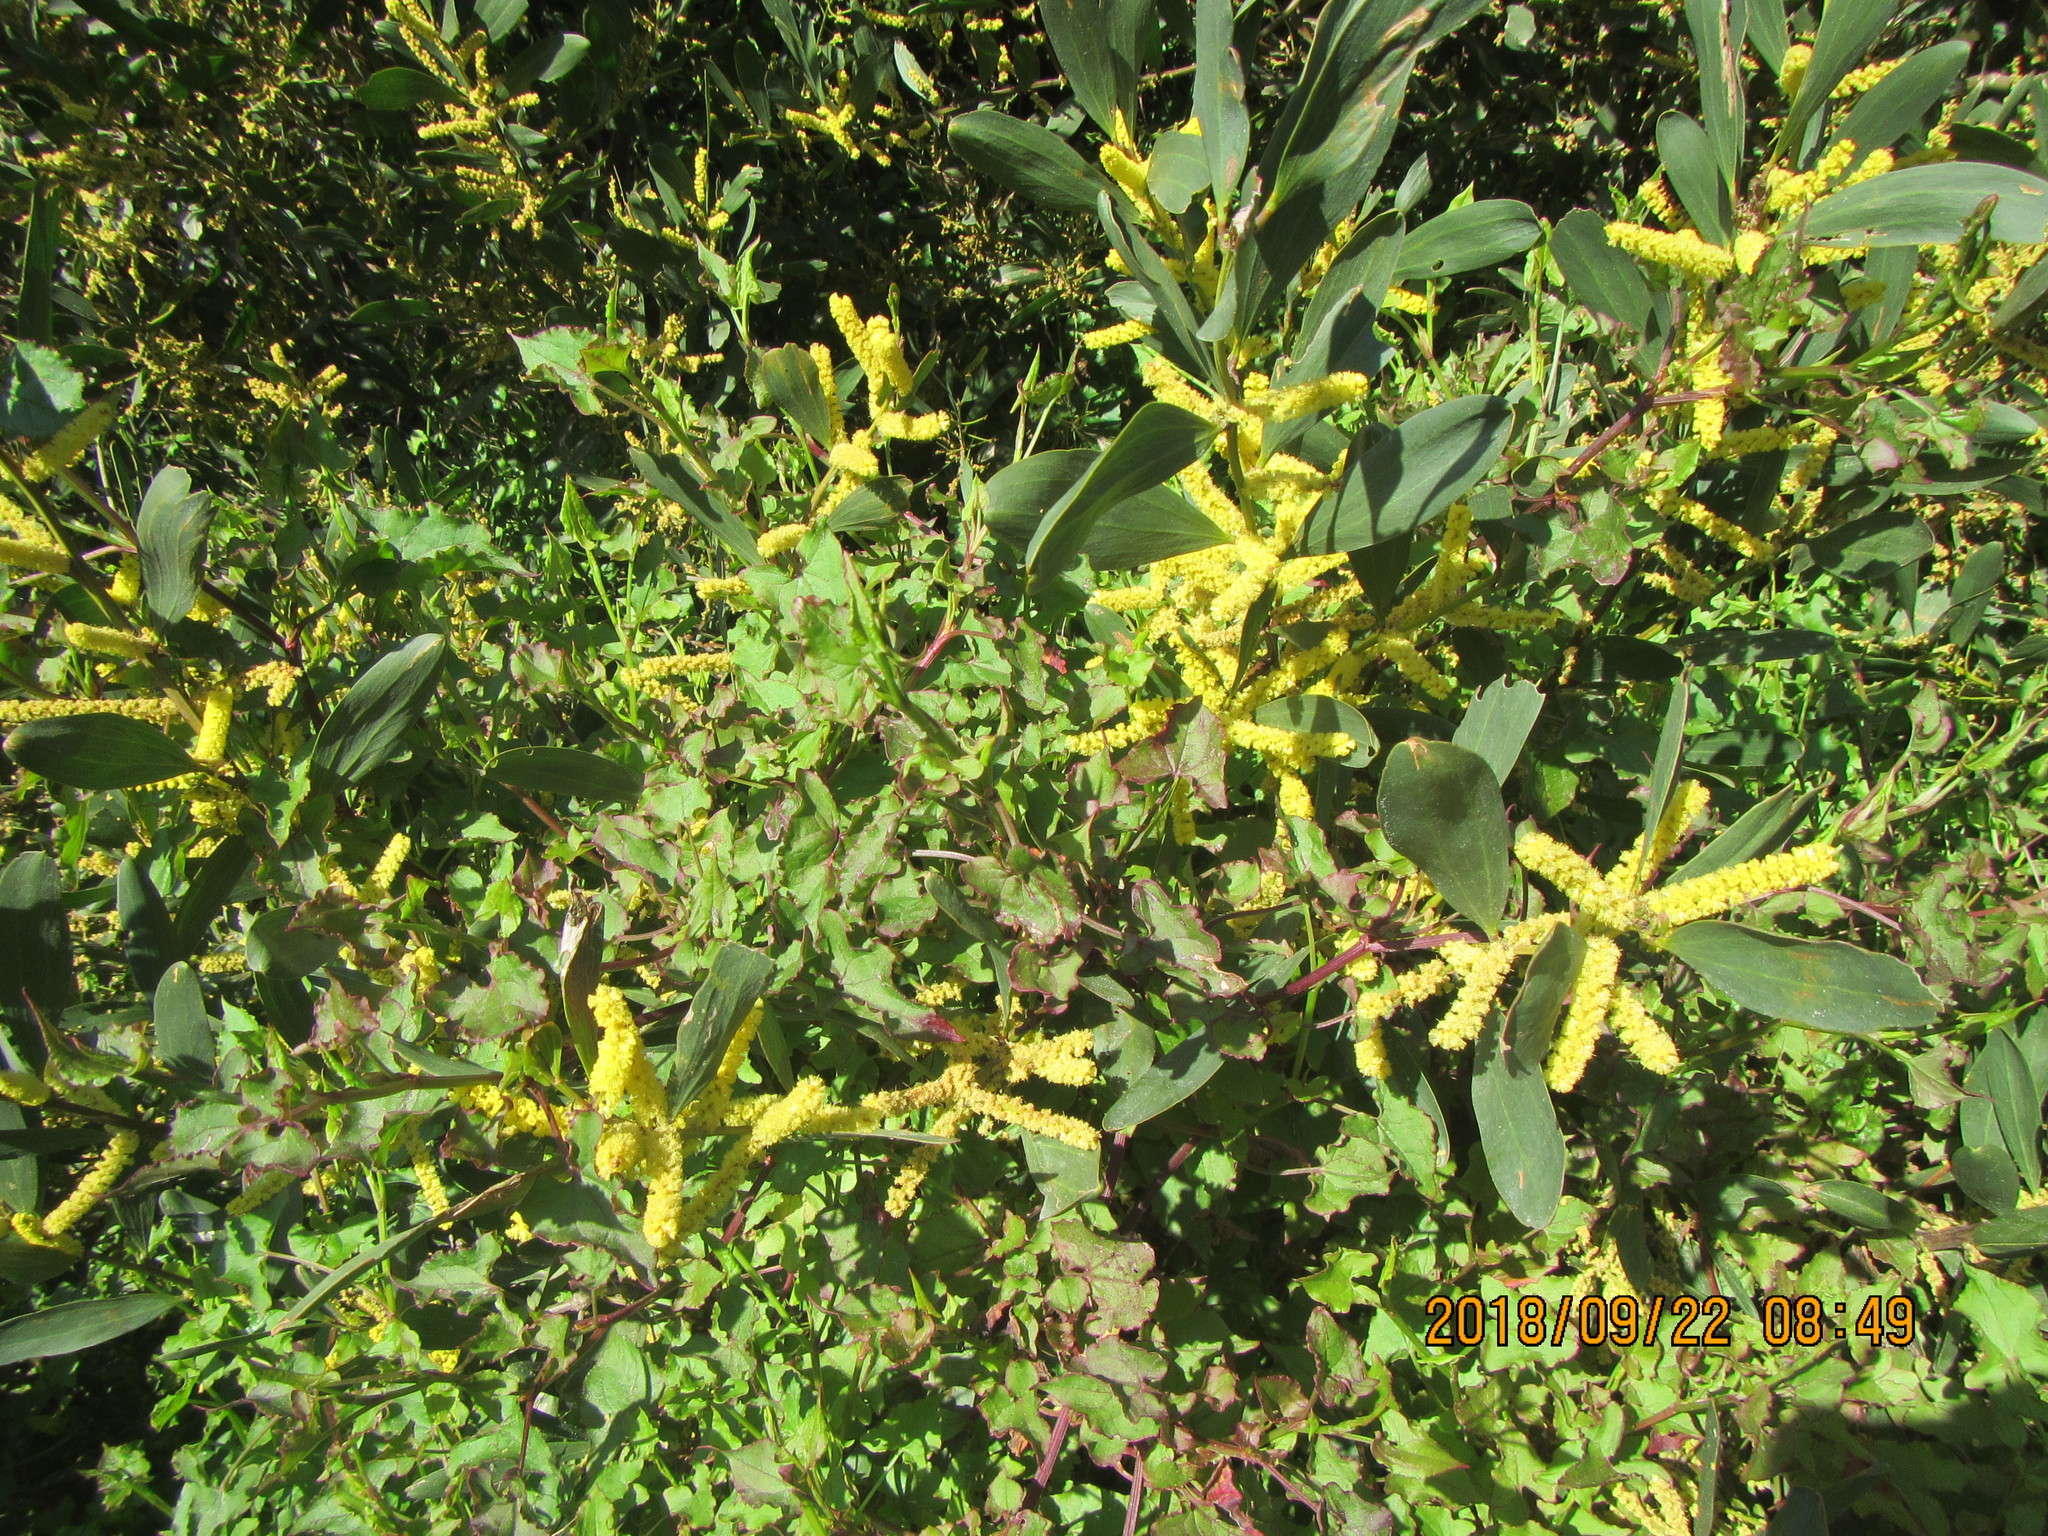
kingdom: Plantae
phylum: Tracheophyta
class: Magnoliopsida
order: Fabales
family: Fabaceae
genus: Acacia
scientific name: Acacia longifolia
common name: Sydney golden wattle
